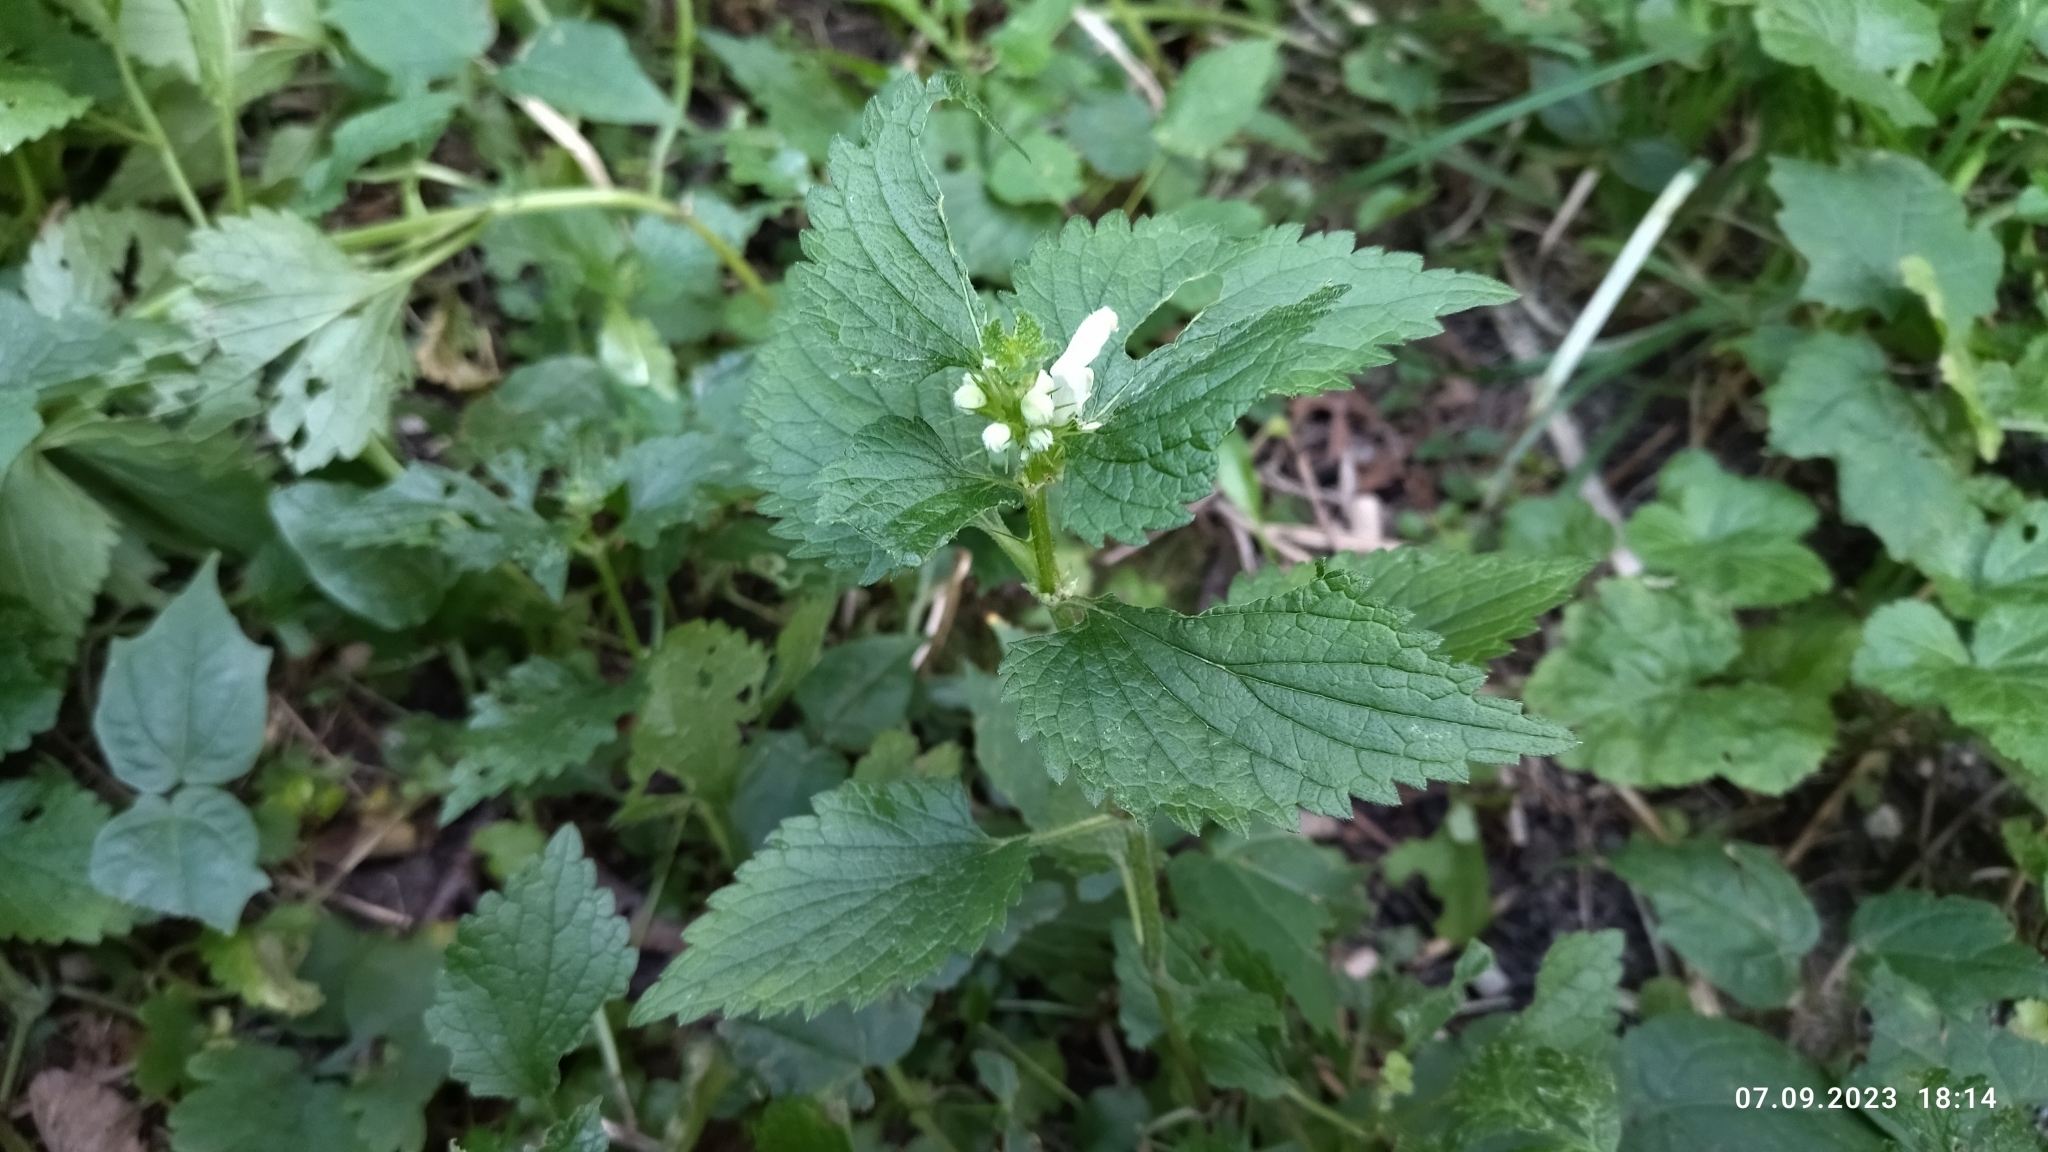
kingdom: Plantae
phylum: Tracheophyta
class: Magnoliopsida
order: Lamiales
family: Lamiaceae
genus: Lamium
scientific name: Lamium album
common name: White dead-nettle
